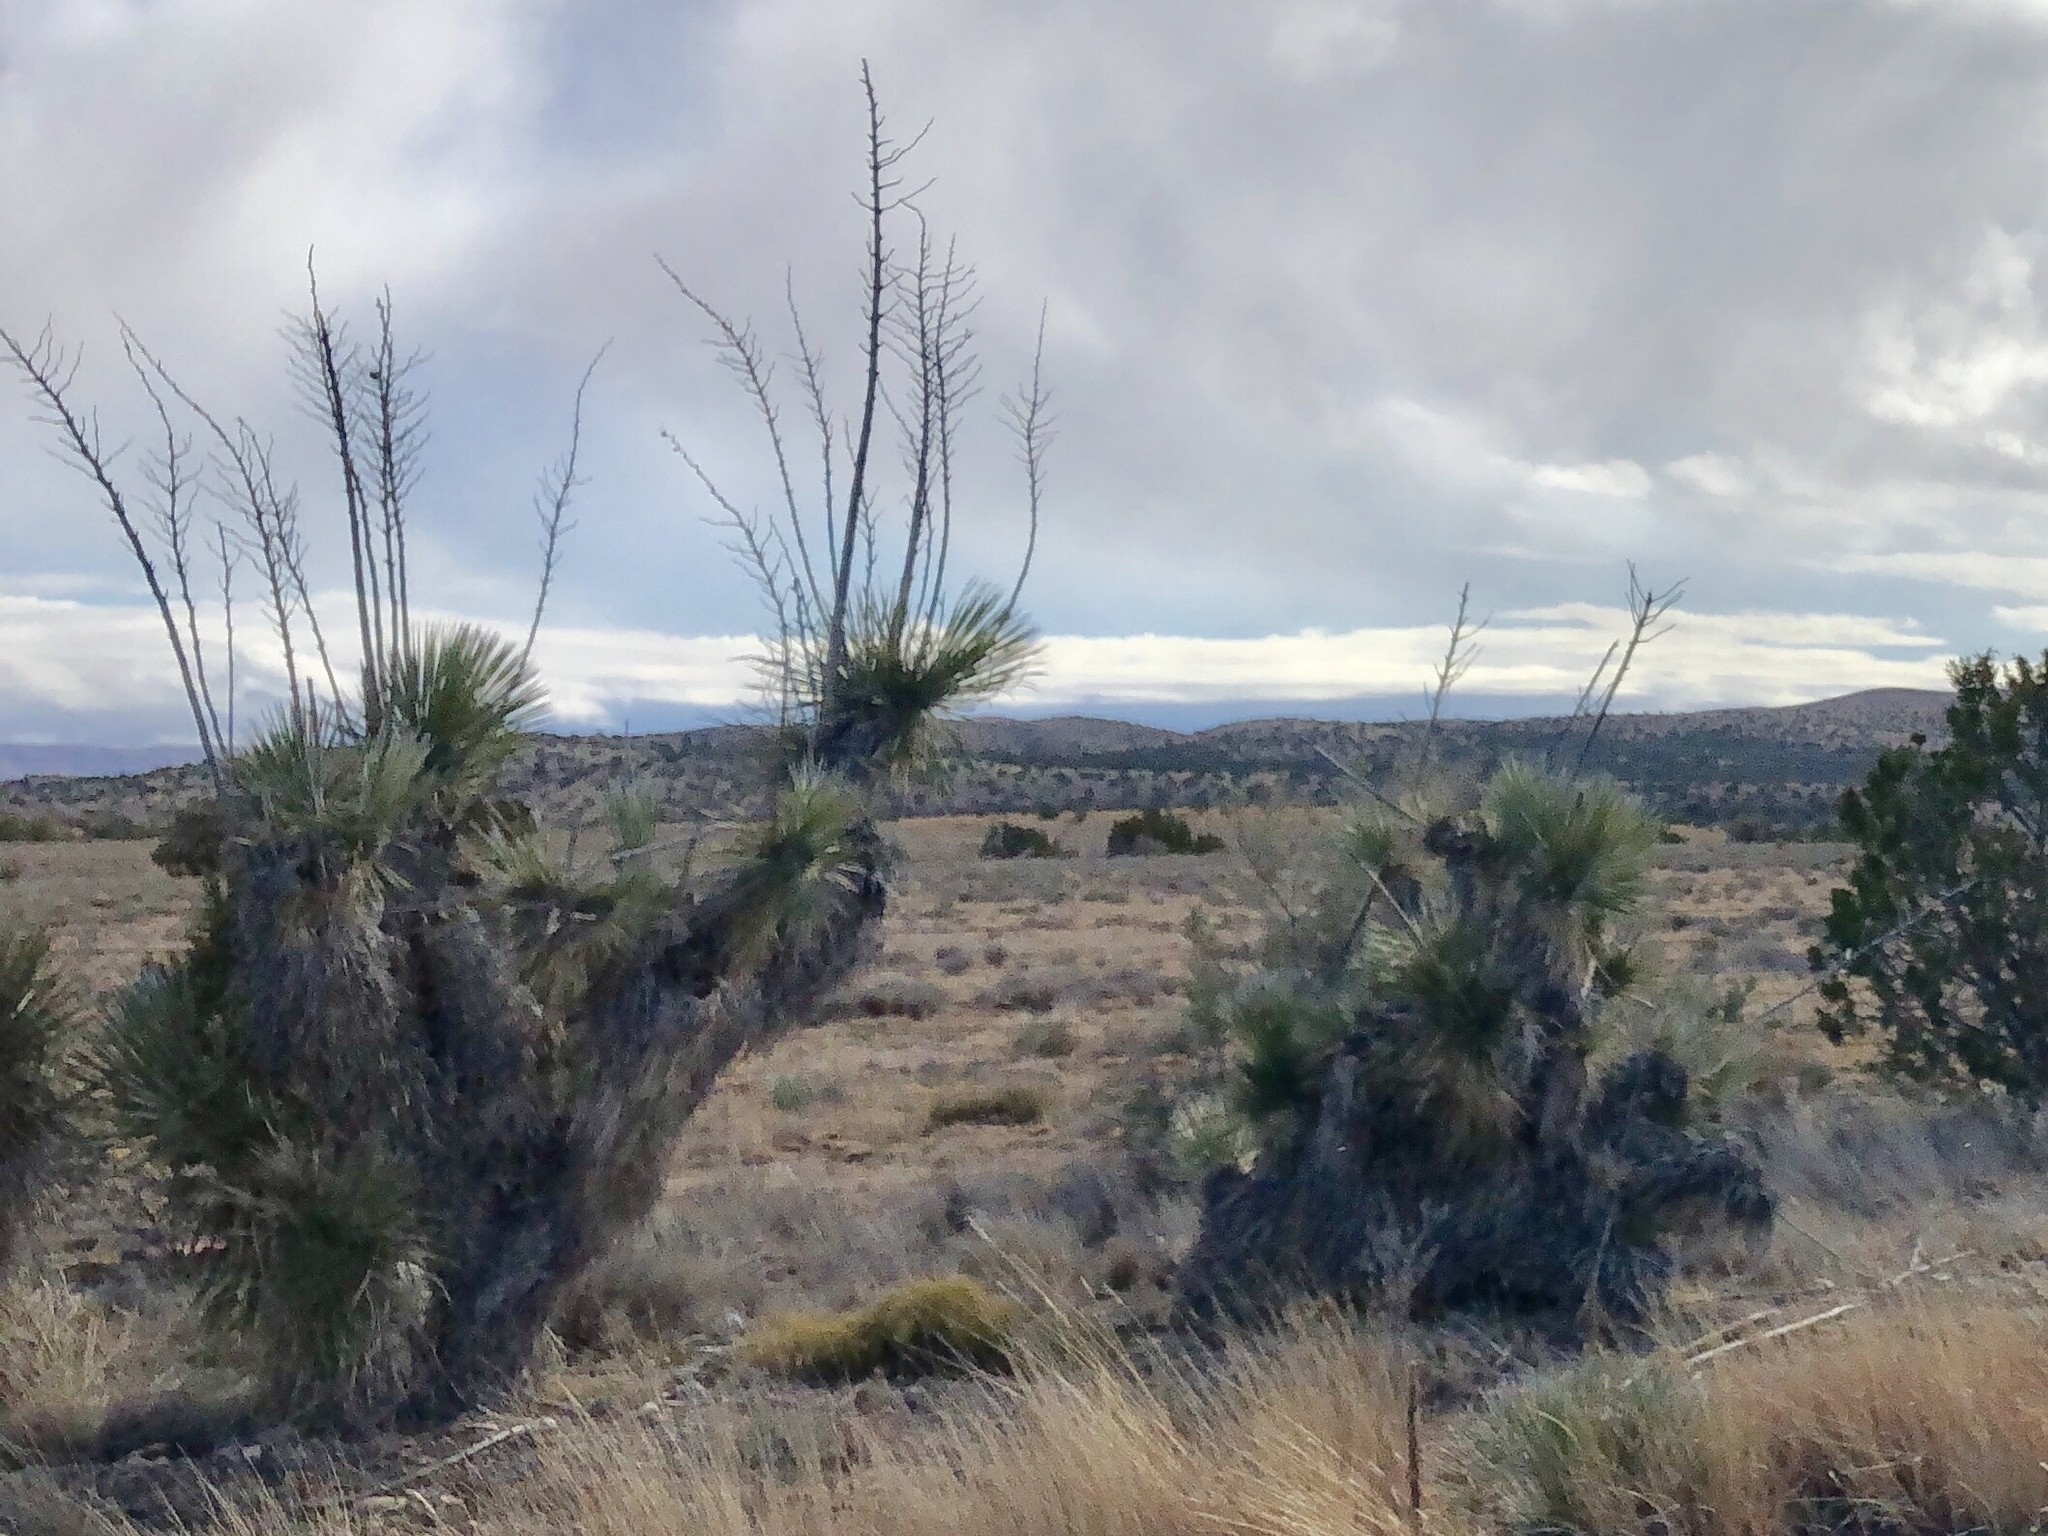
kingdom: Plantae
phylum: Tracheophyta
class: Liliopsida
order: Asparagales
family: Asparagaceae
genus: Yucca
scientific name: Yucca elata
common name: Palmella
